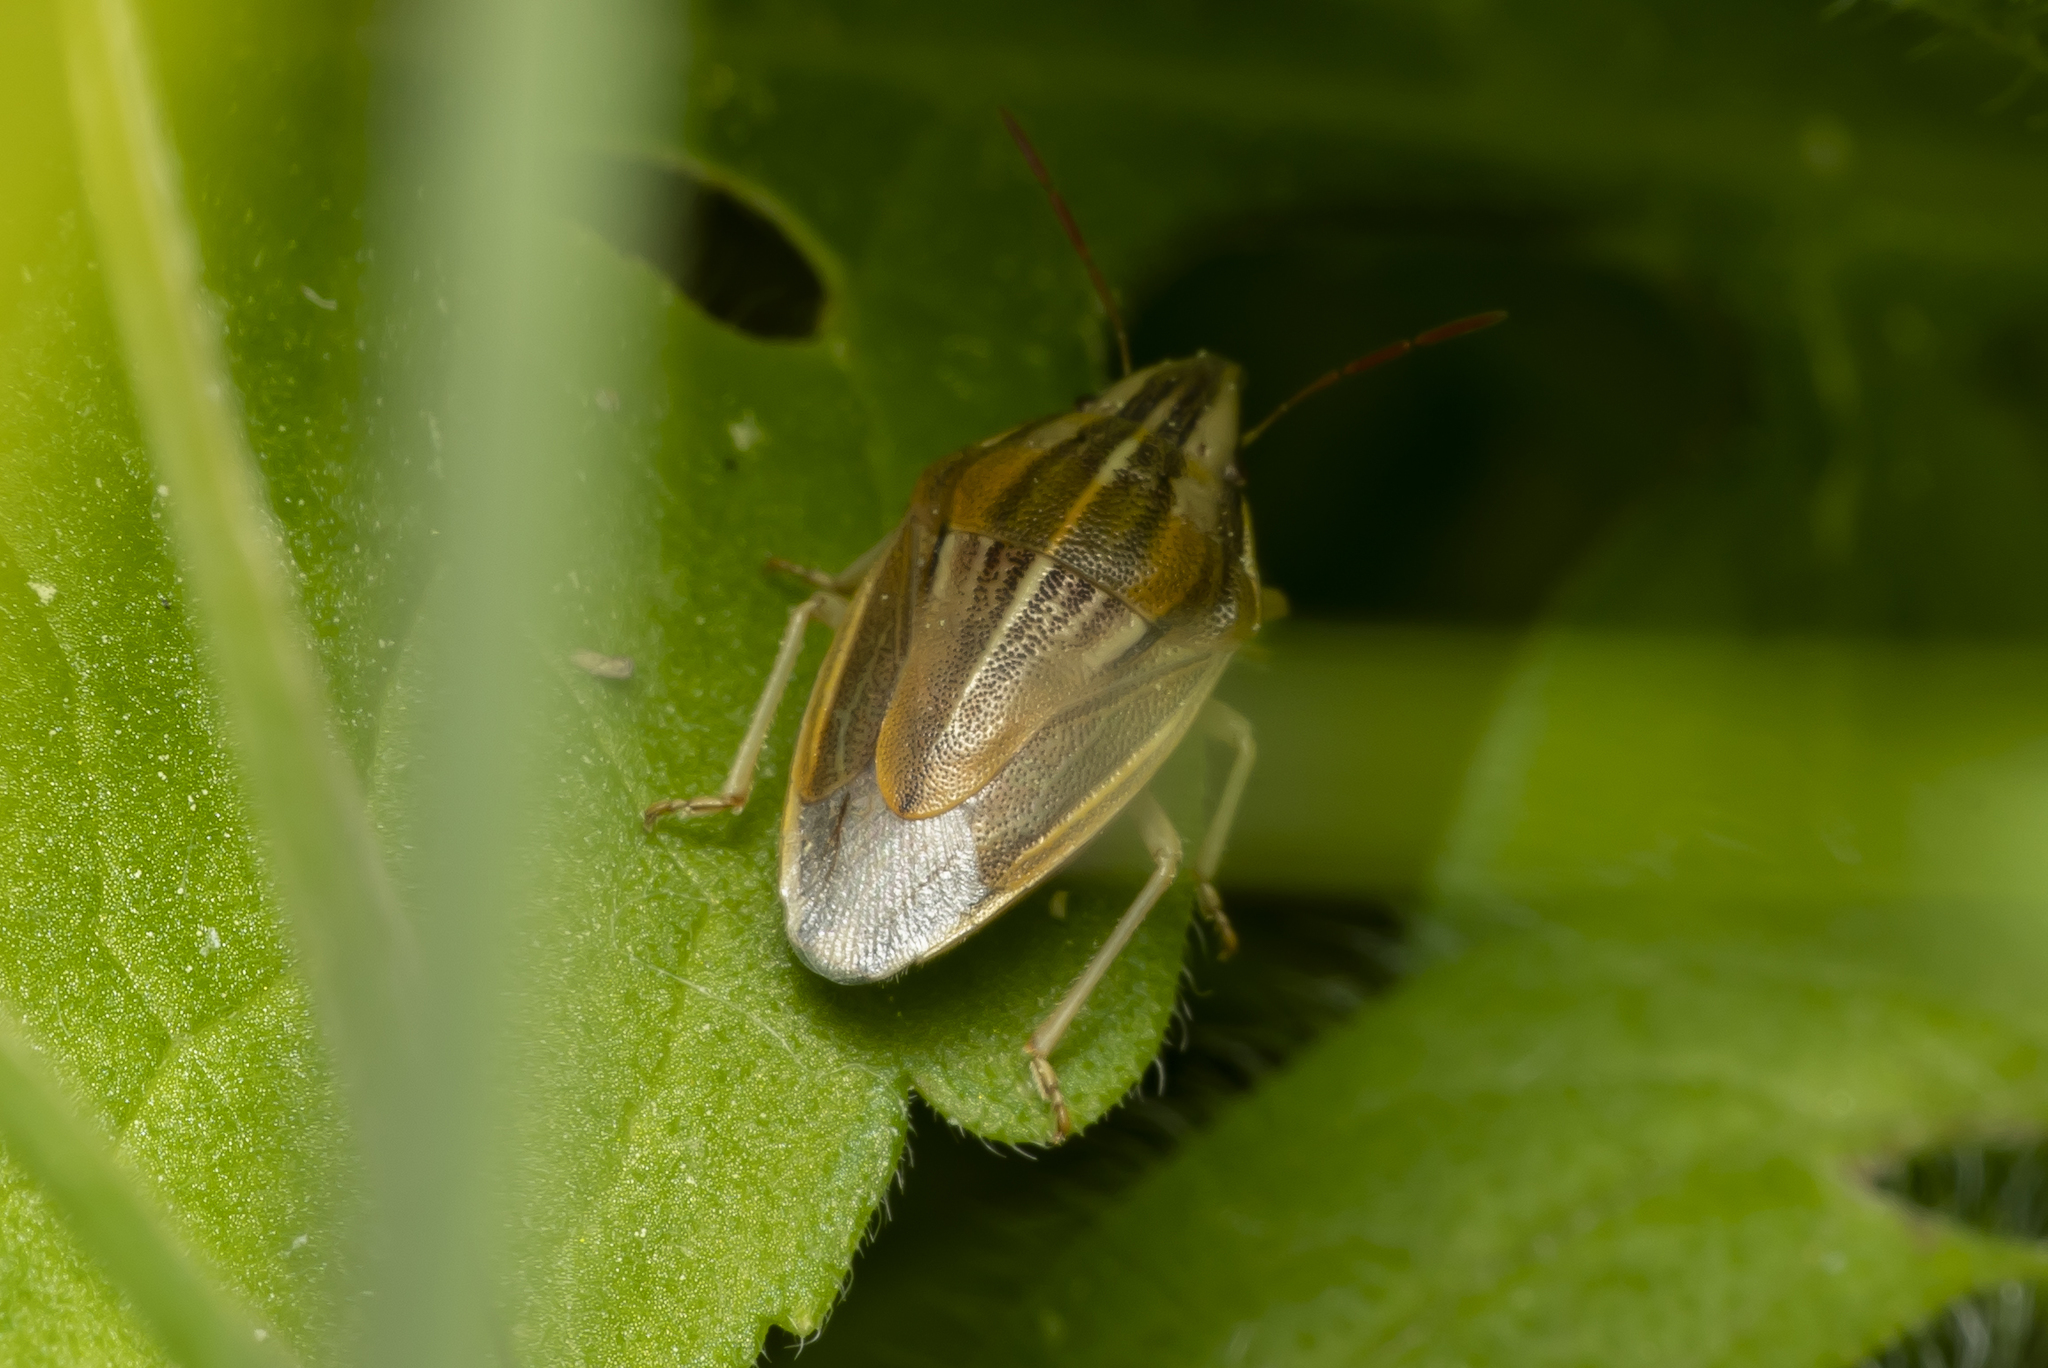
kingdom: Animalia
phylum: Arthropoda
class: Insecta
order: Hemiptera
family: Pentatomidae
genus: Aelia
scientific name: Aelia acuminata
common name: Bishop's mitre
